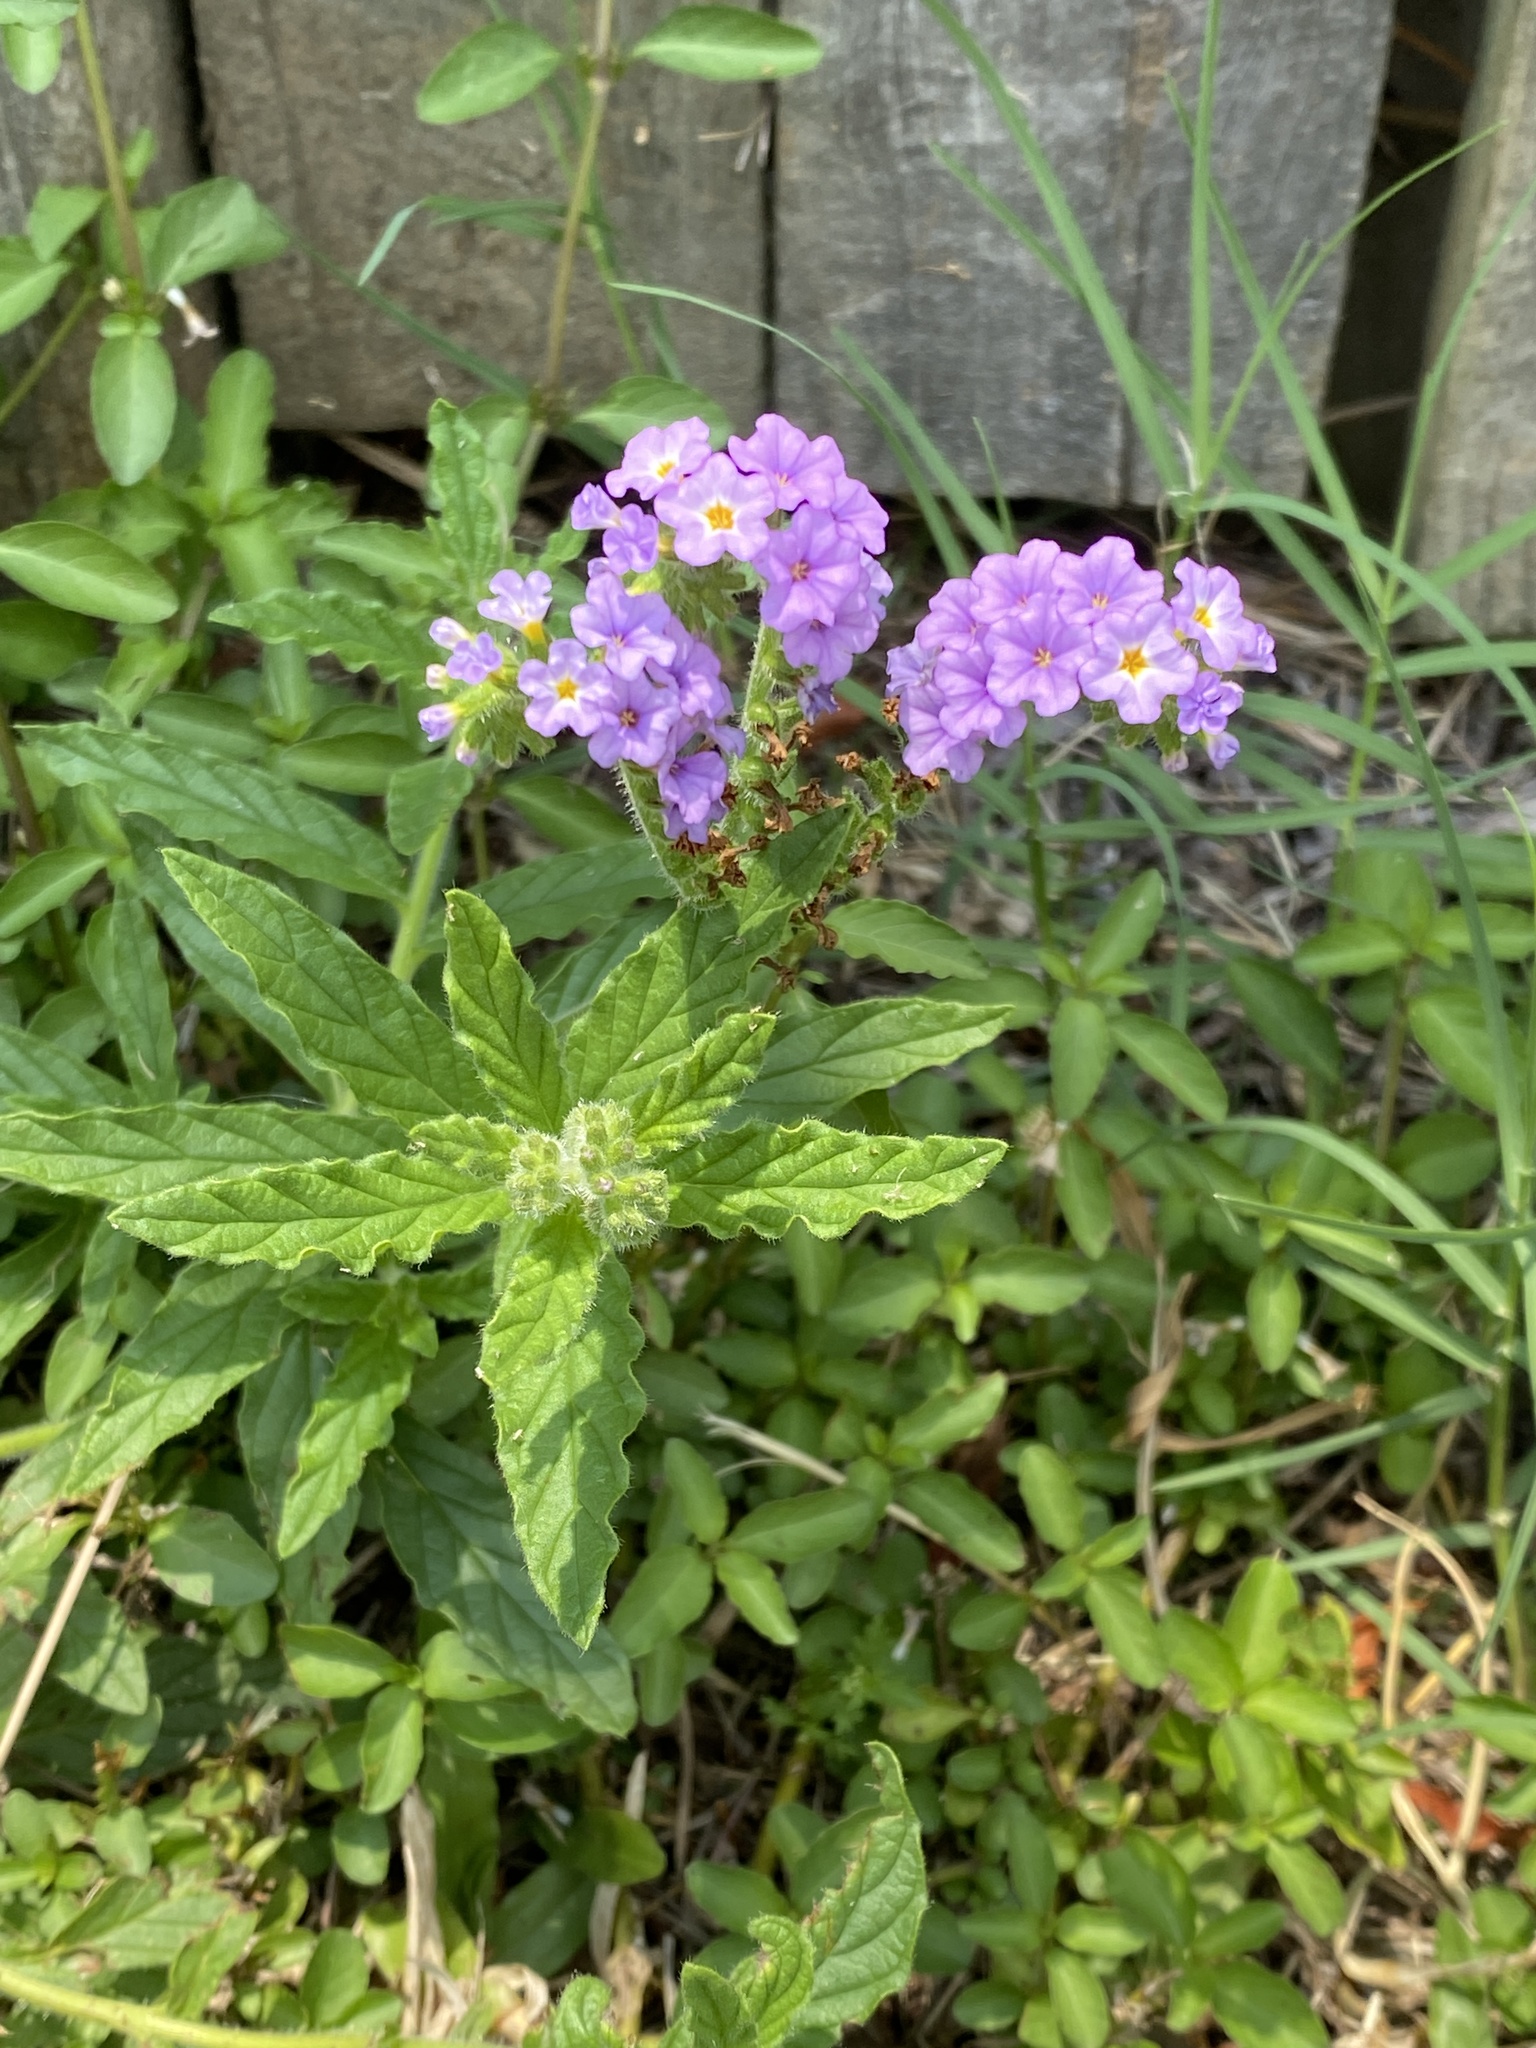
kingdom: Plantae
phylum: Tracheophyta
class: Magnoliopsida
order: Boraginales
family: Heliotropiaceae
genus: Heliotropium
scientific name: Heliotropium amplexicaule
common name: Clasping heliotrope
